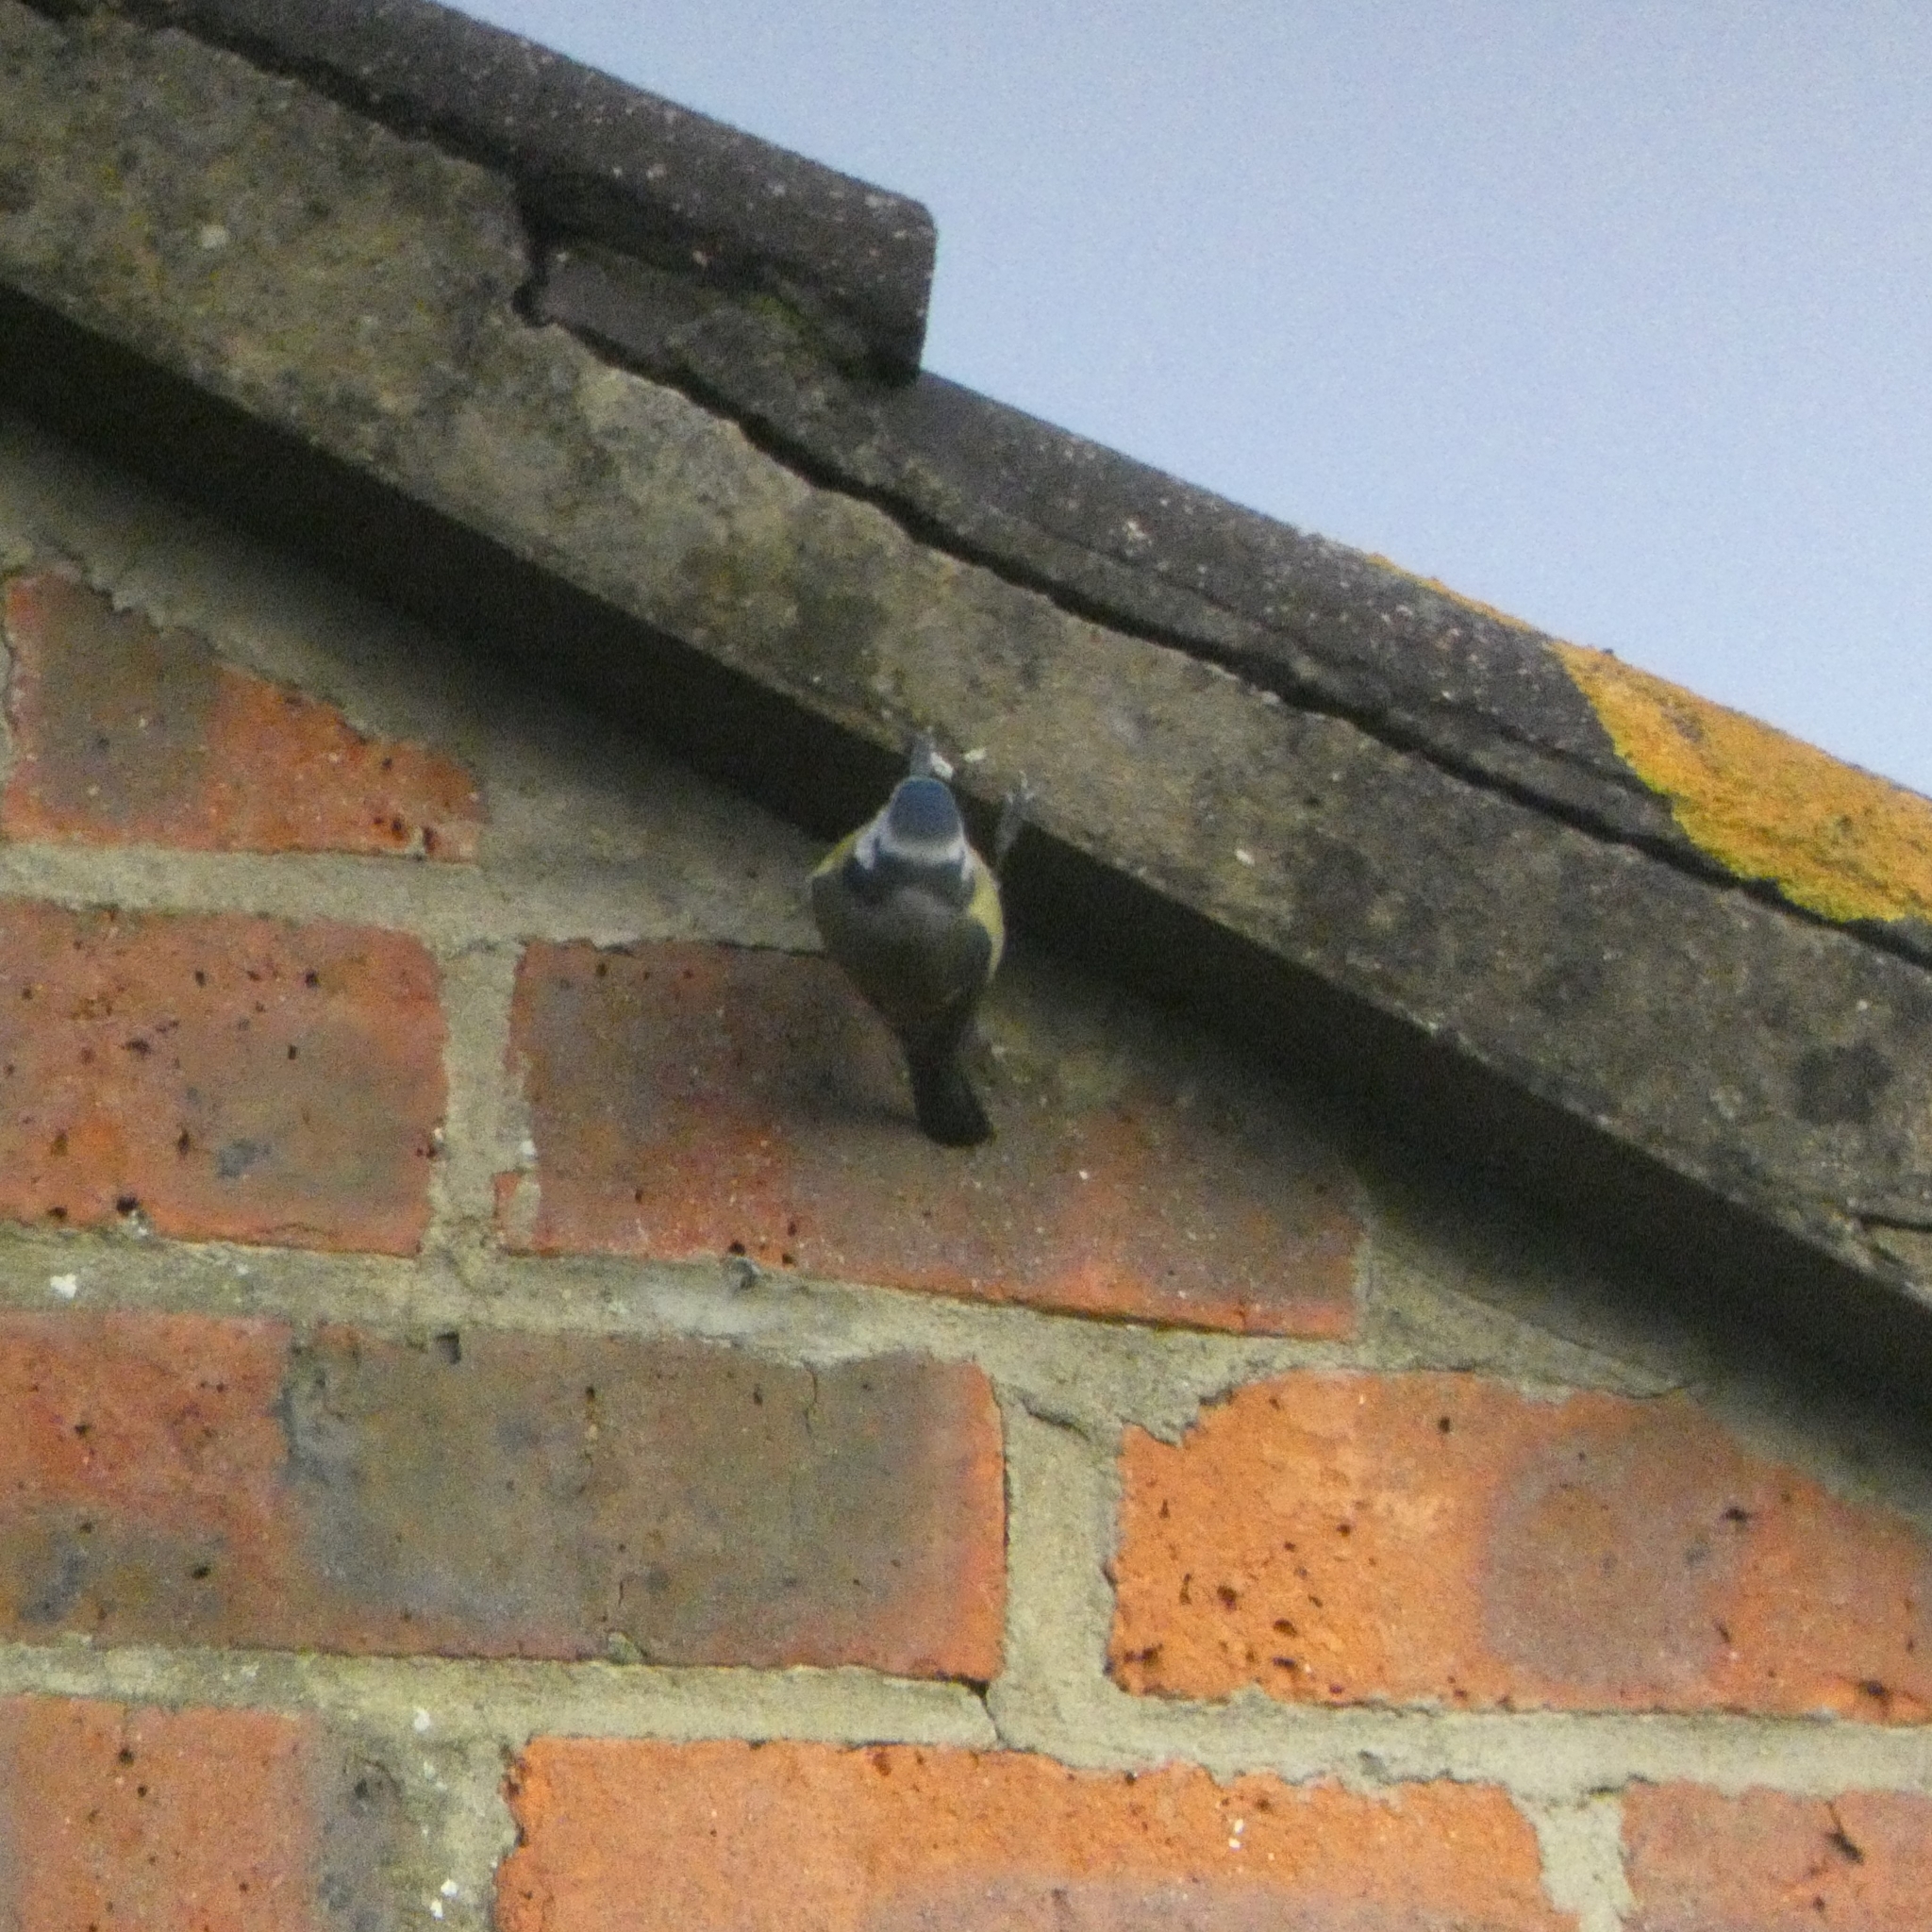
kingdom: Animalia
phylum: Chordata
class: Aves
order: Passeriformes
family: Paridae
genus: Cyanistes
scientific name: Cyanistes caeruleus
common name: Eurasian blue tit
